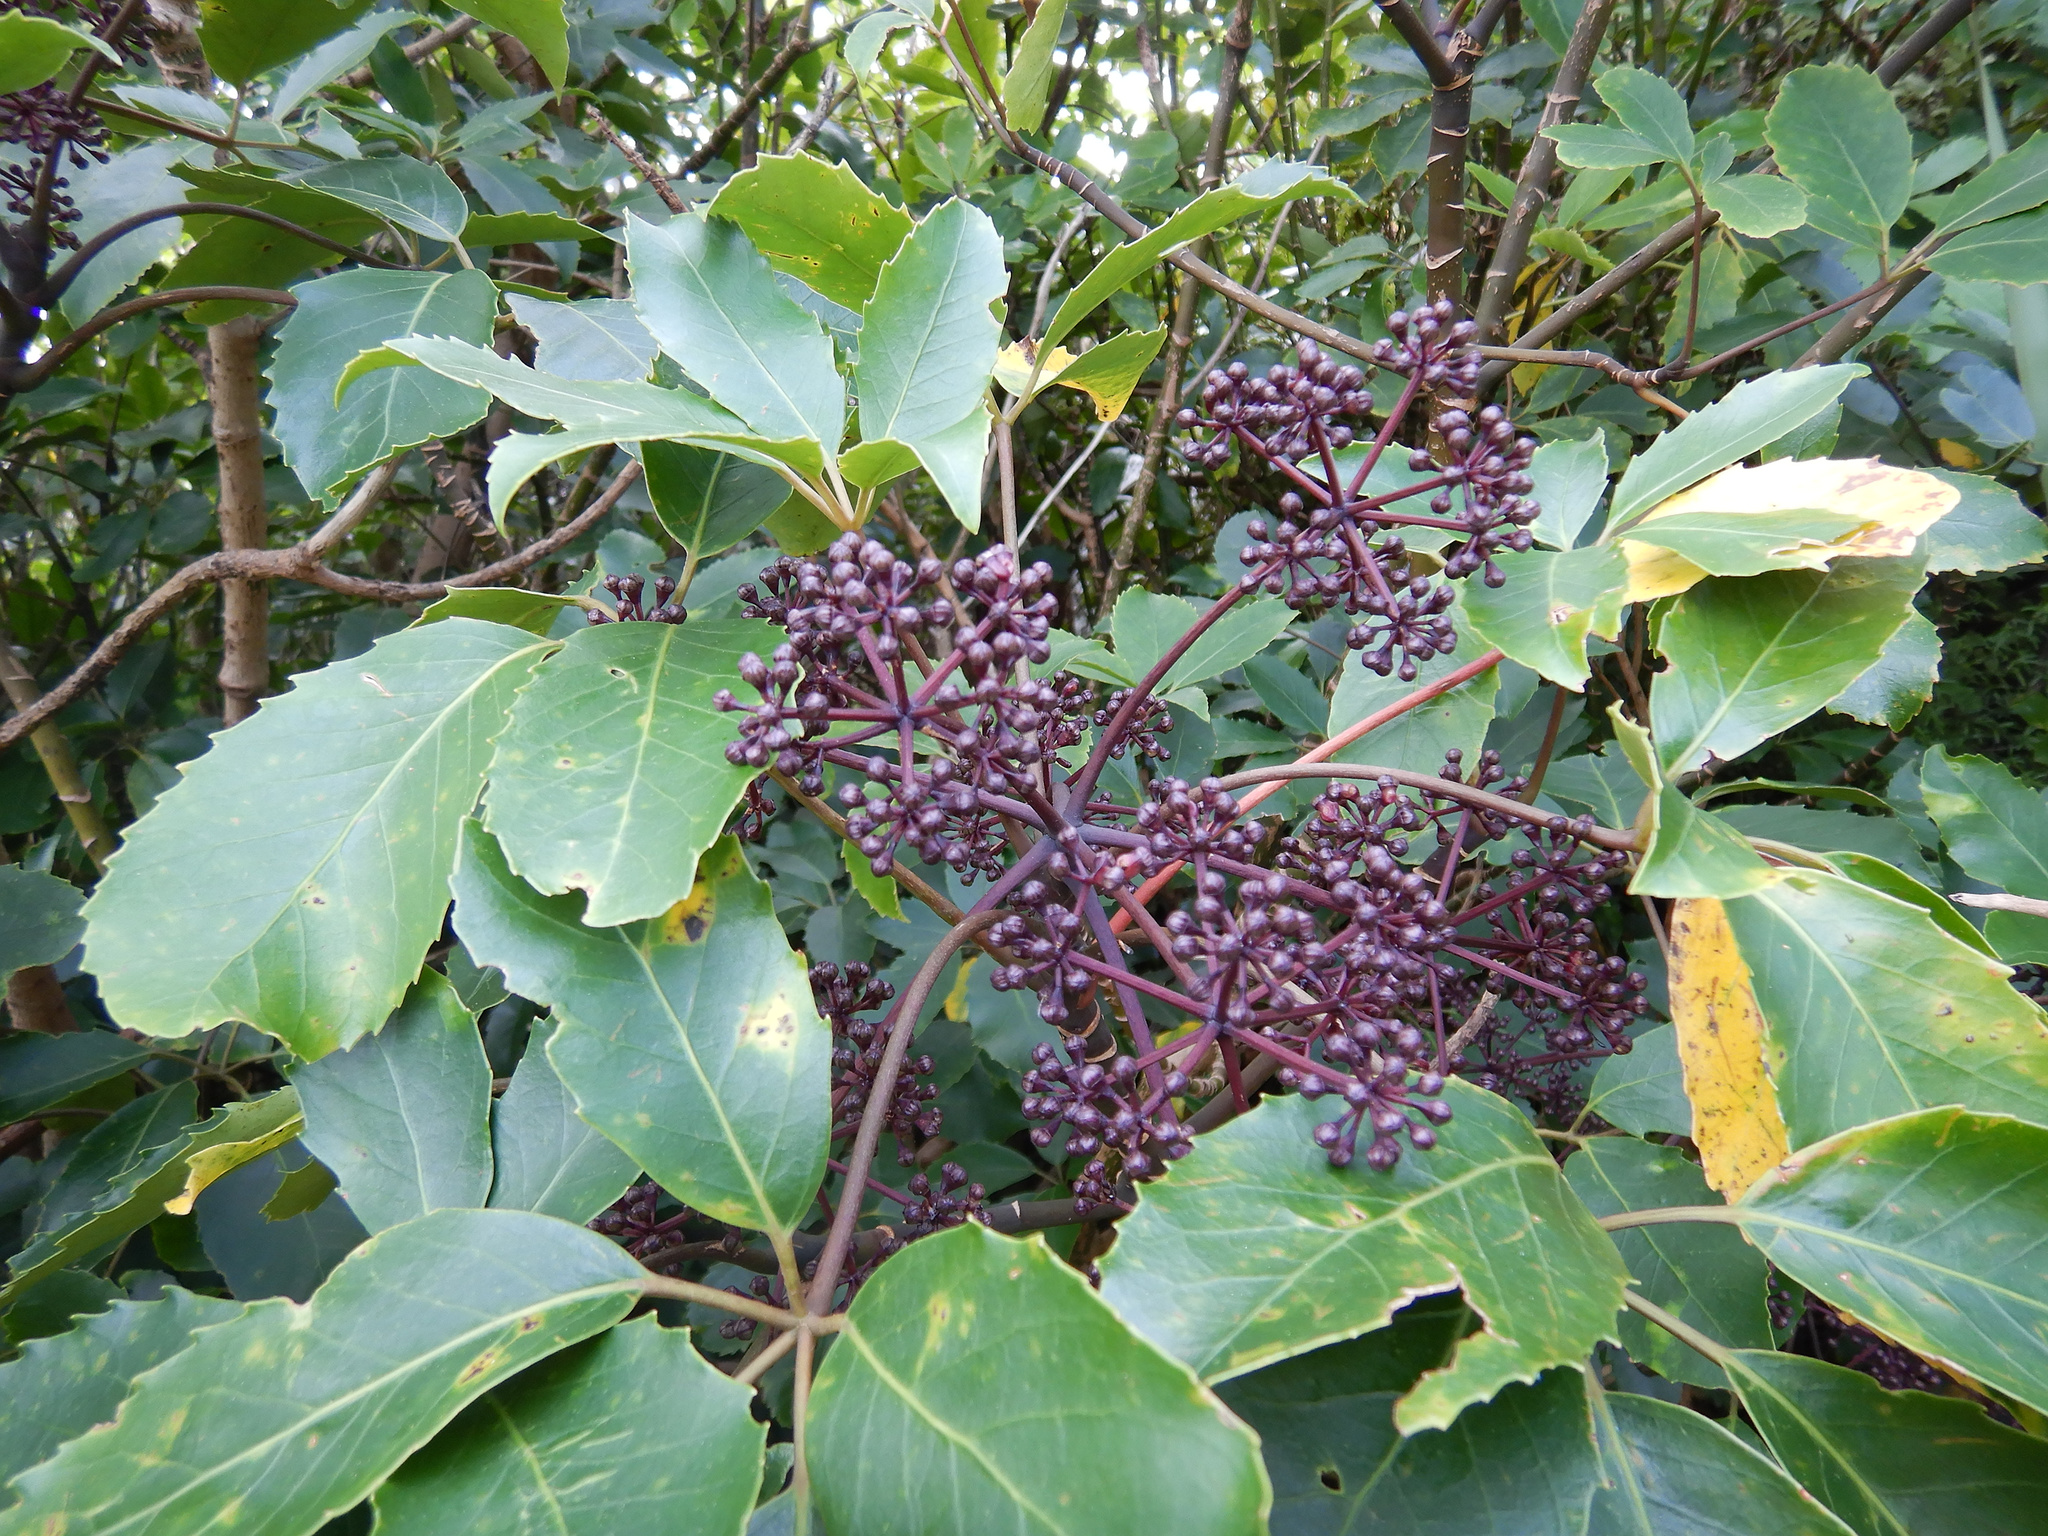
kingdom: Plantae
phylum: Tracheophyta
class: Magnoliopsida
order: Apiales
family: Araliaceae
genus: Neopanax
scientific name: Neopanax arboreus
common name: Five-fingers
